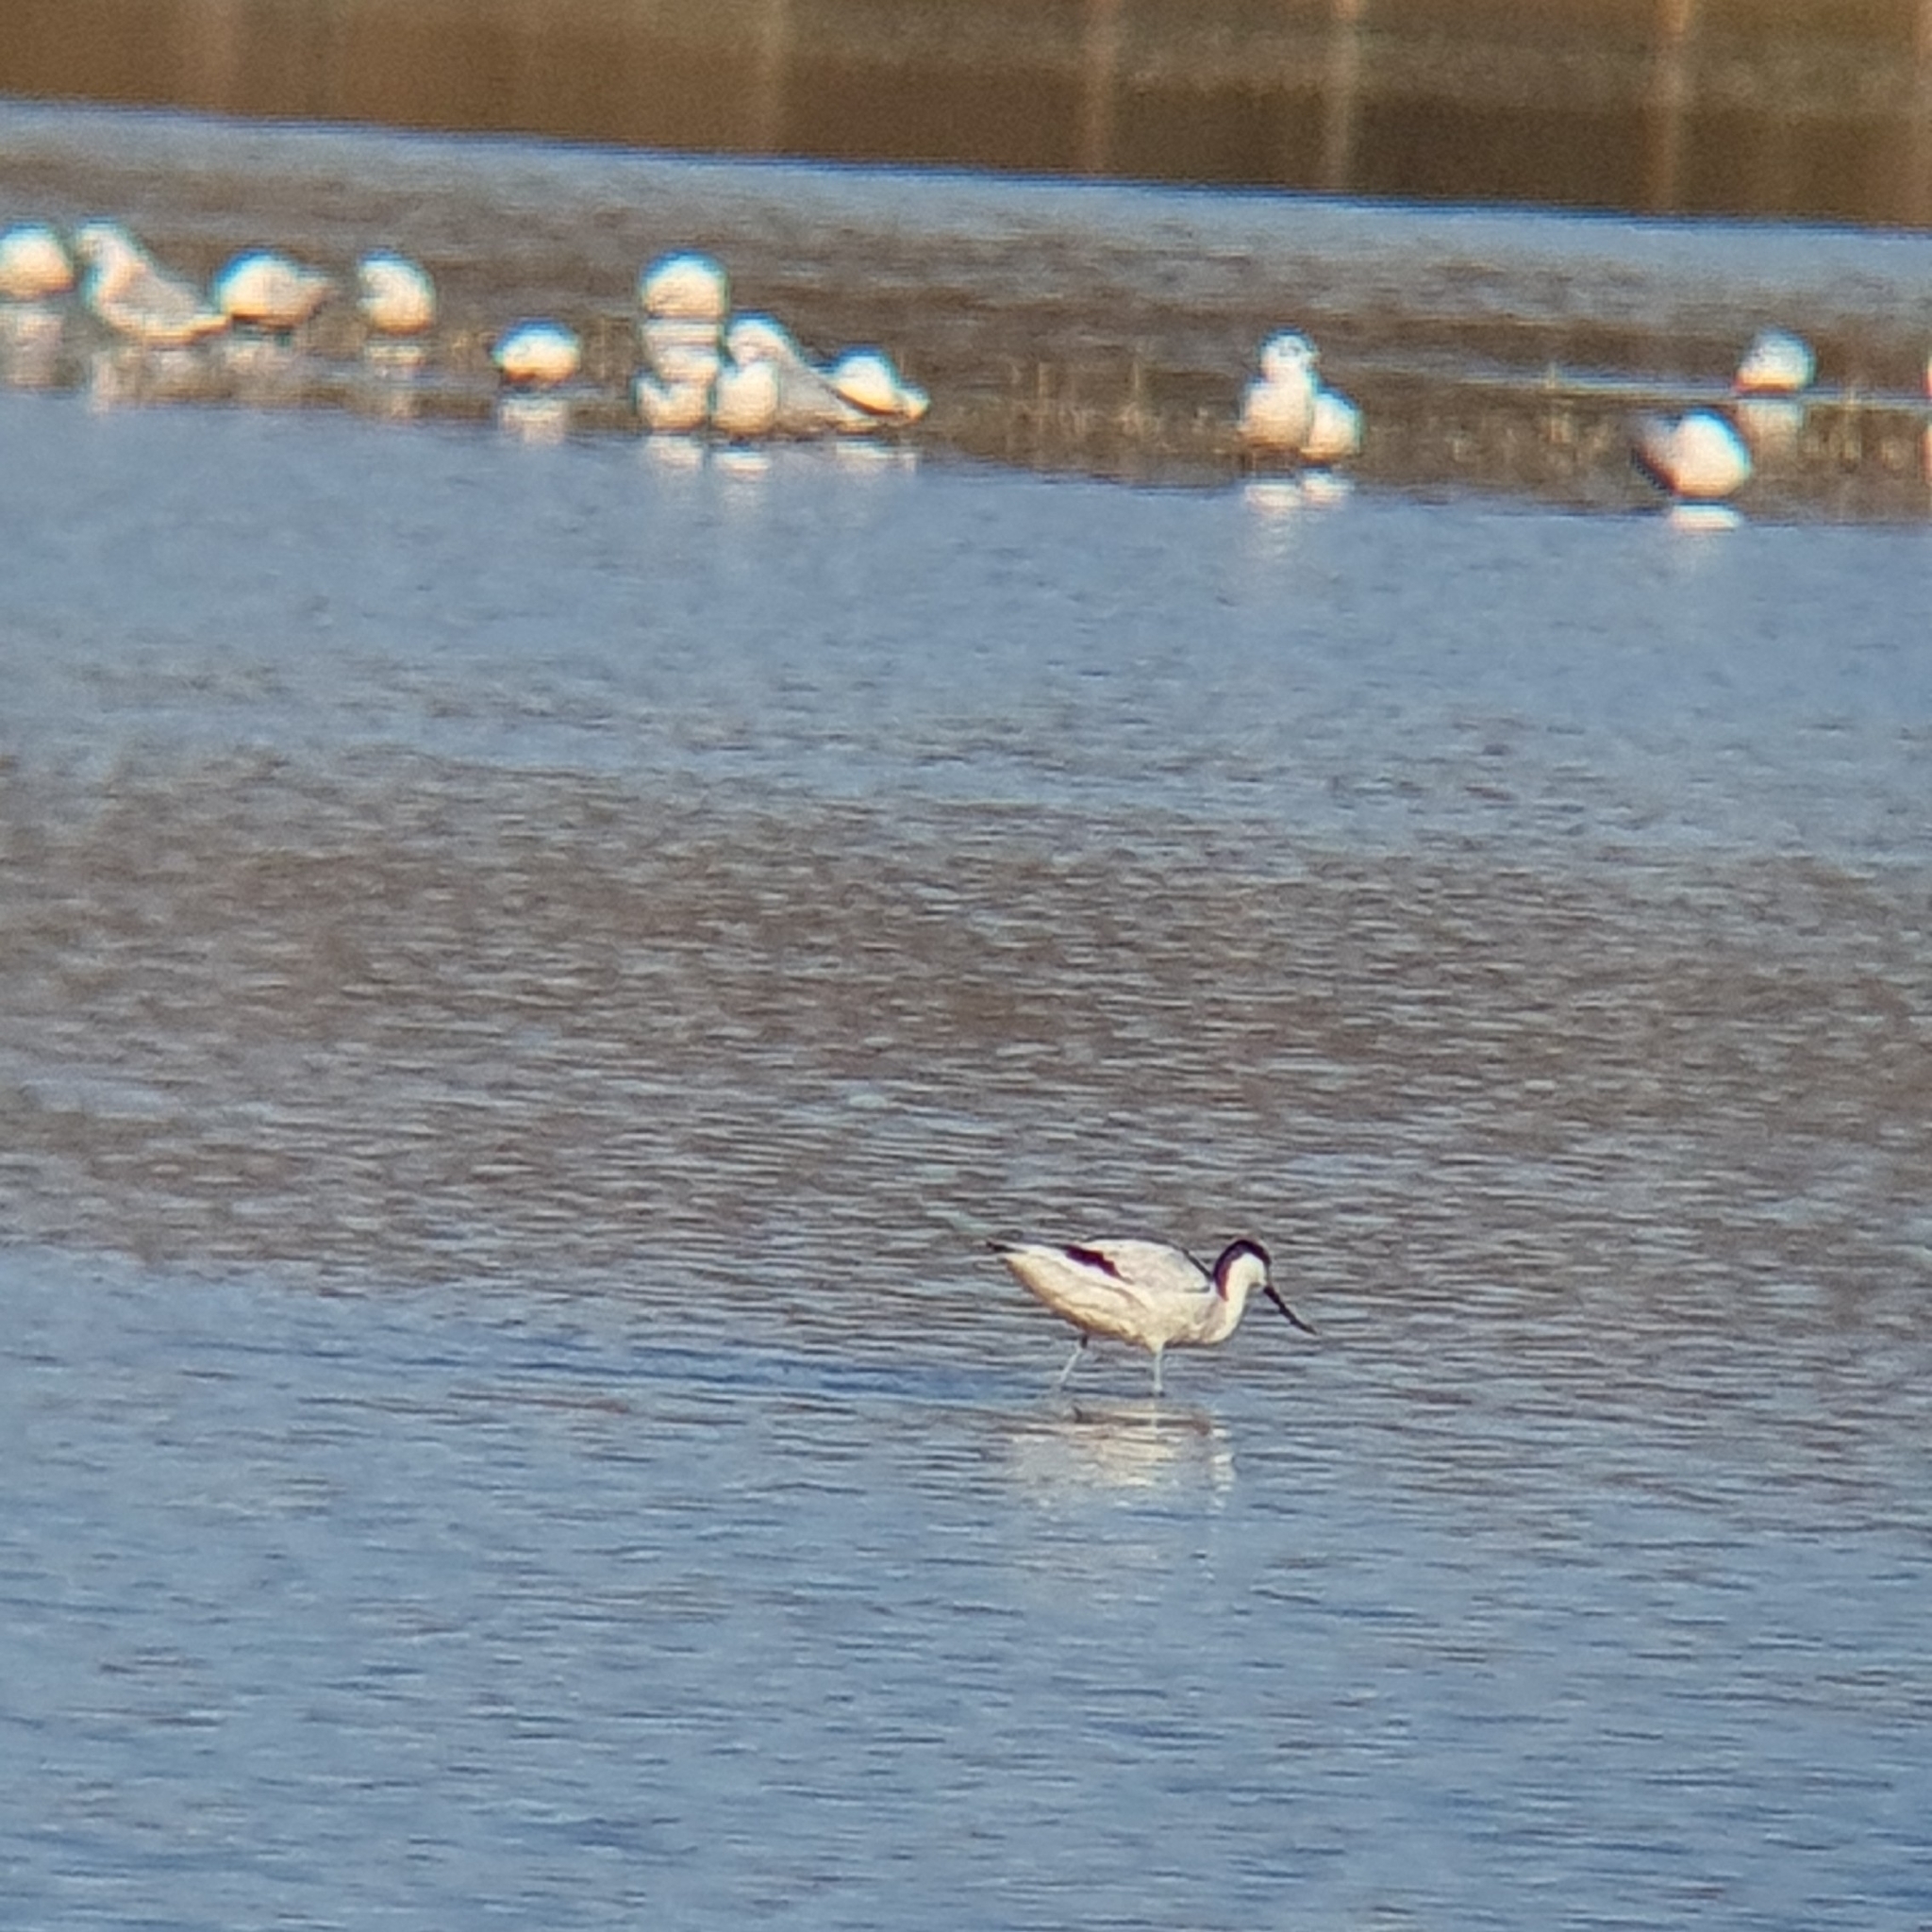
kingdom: Animalia
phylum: Chordata
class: Aves
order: Charadriiformes
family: Recurvirostridae
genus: Recurvirostra
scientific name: Recurvirostra avosetta
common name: Pied avocet
